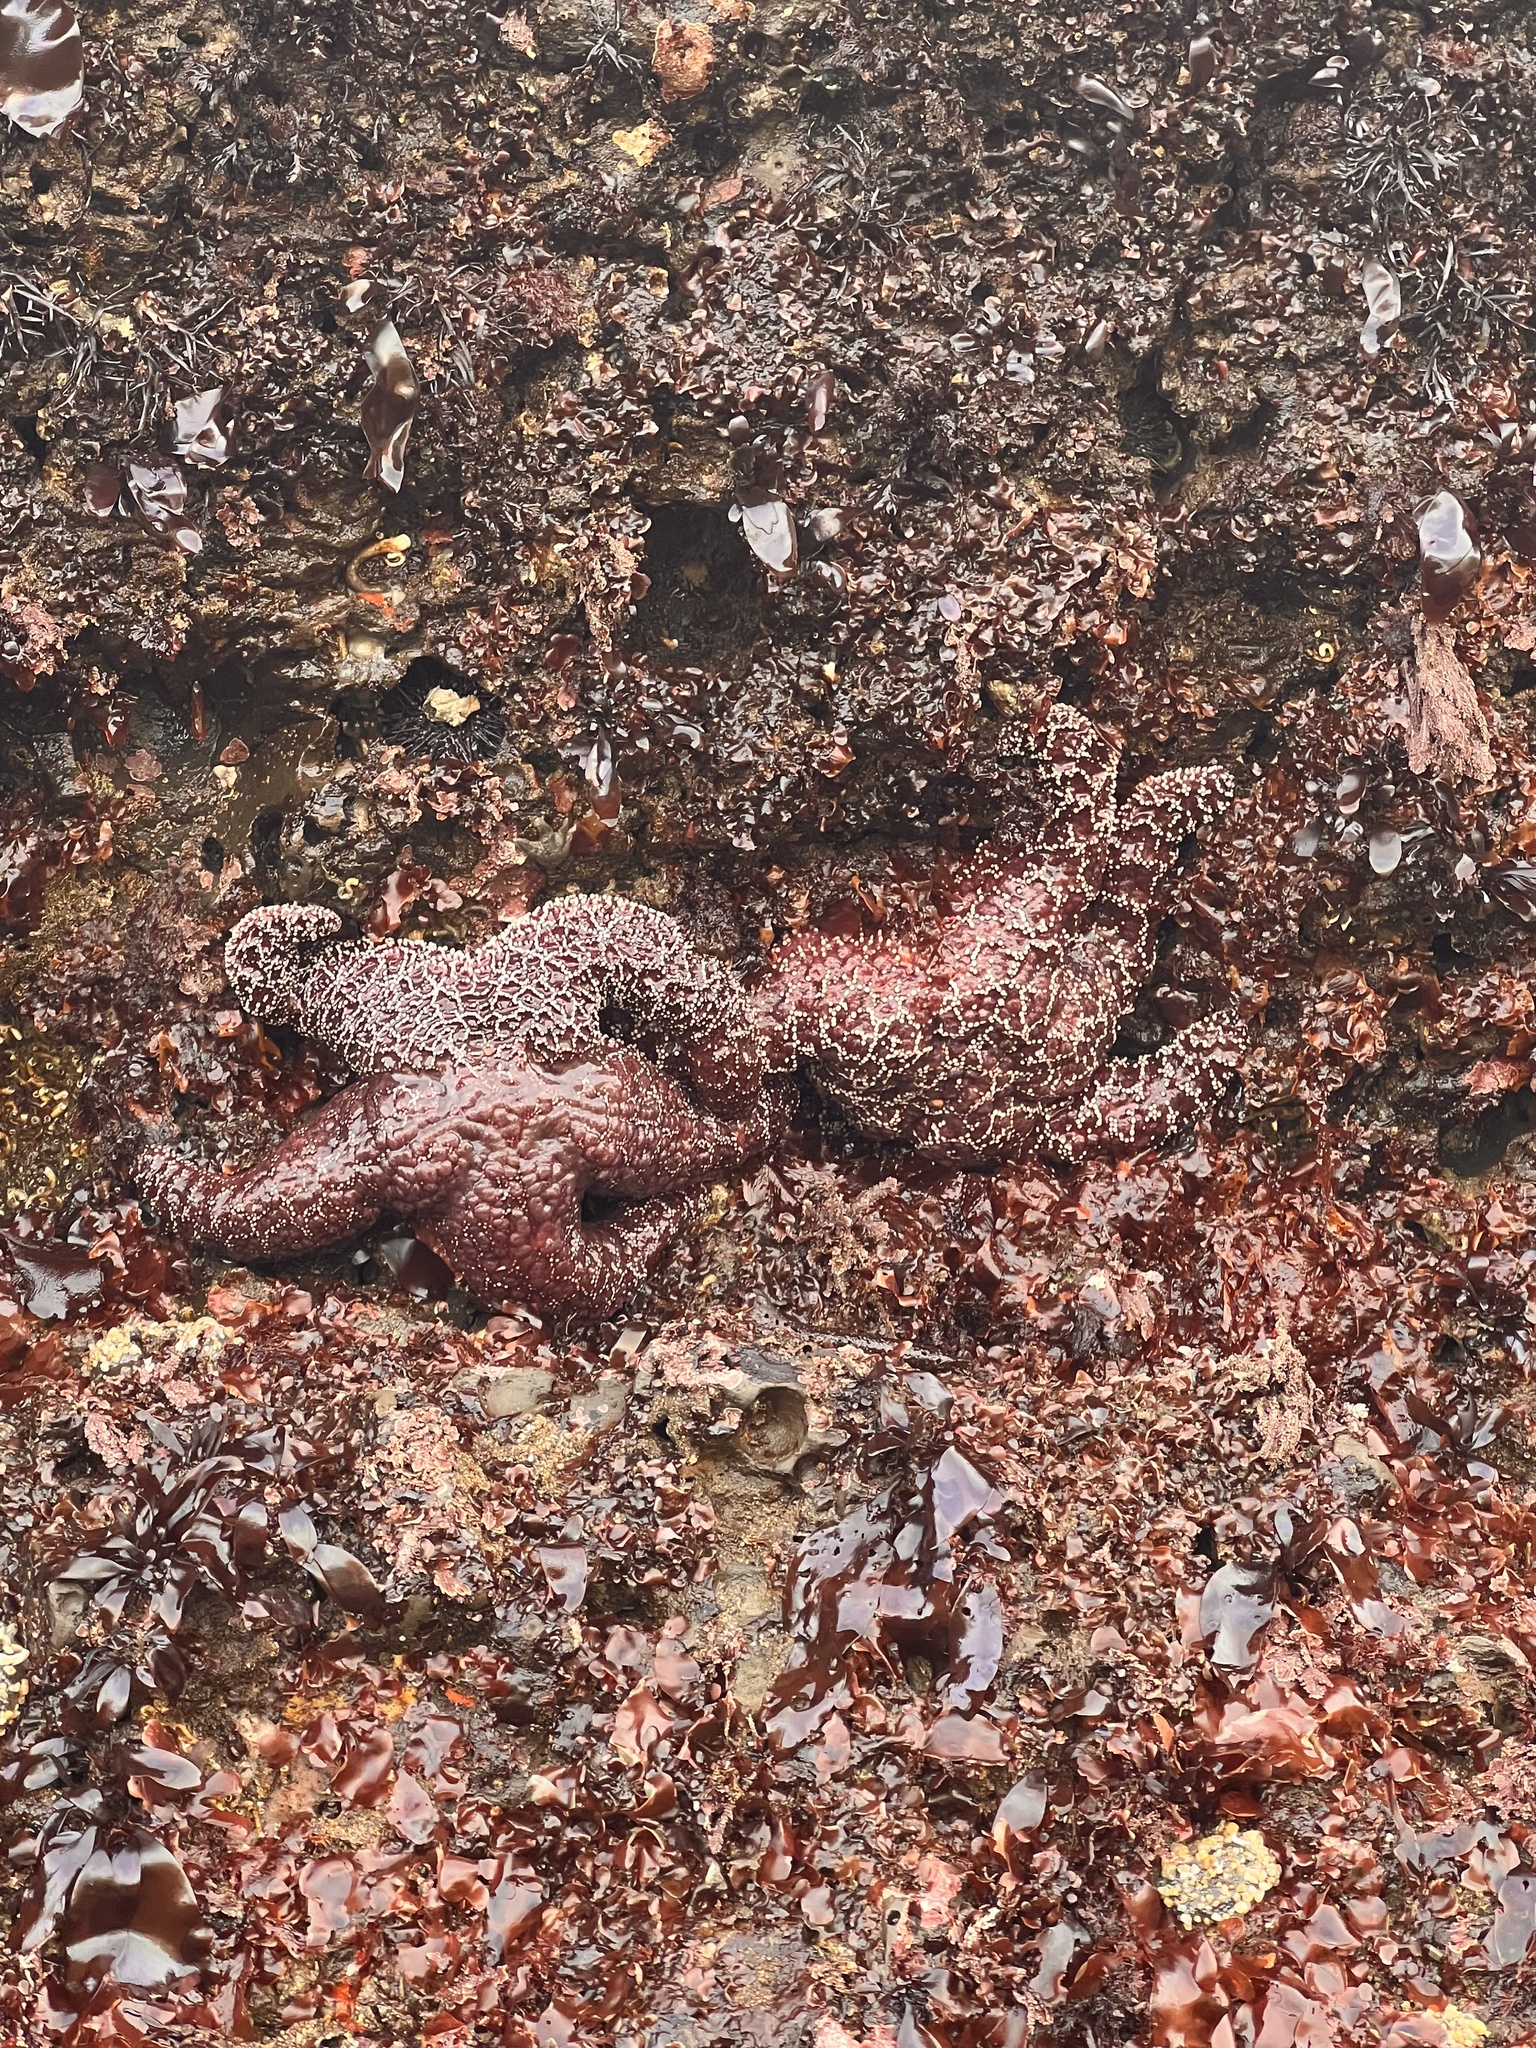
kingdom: Animalia
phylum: Echinodermata
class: Asteroidea
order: Forcipulatida
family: Asteriidae
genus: Pisaster
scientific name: Pisaster ochraceus
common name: Ochre stars
